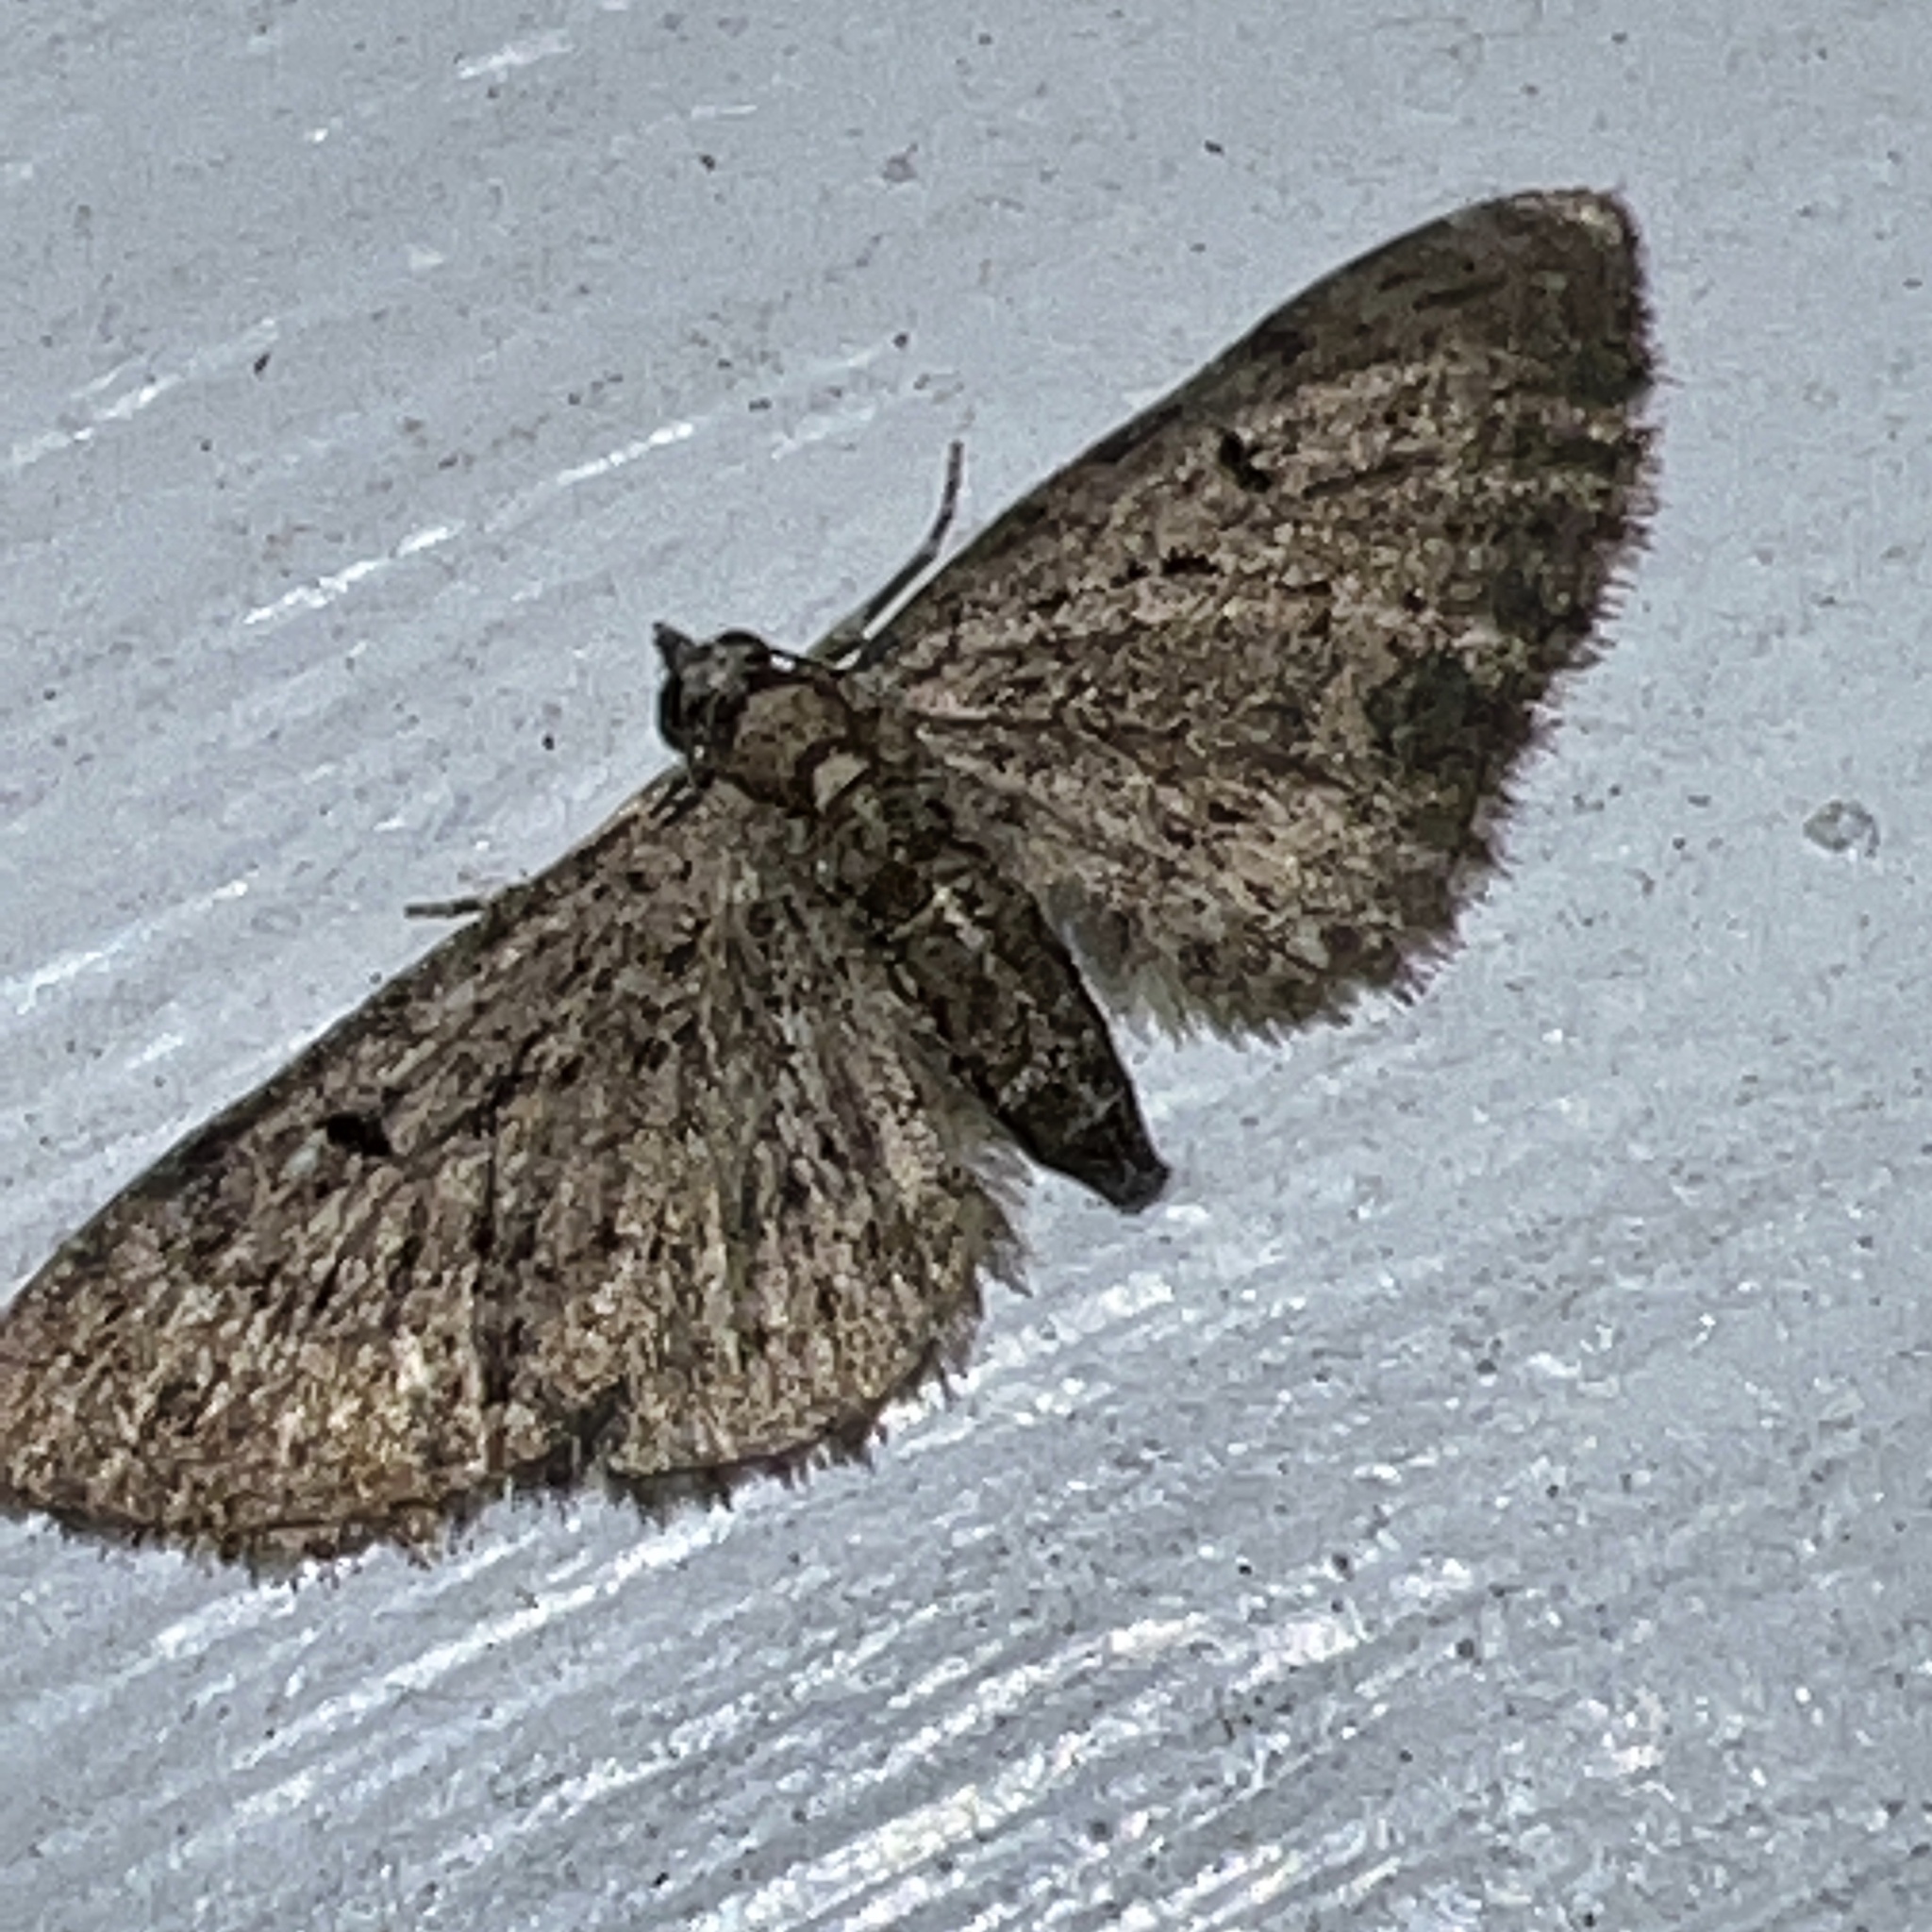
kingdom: Animalia
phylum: Arthropoda
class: Insecta
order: Lepidoptera
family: Geometridae
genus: Eupithecia
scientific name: Eupithecia miserulata
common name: Common eupithecia
